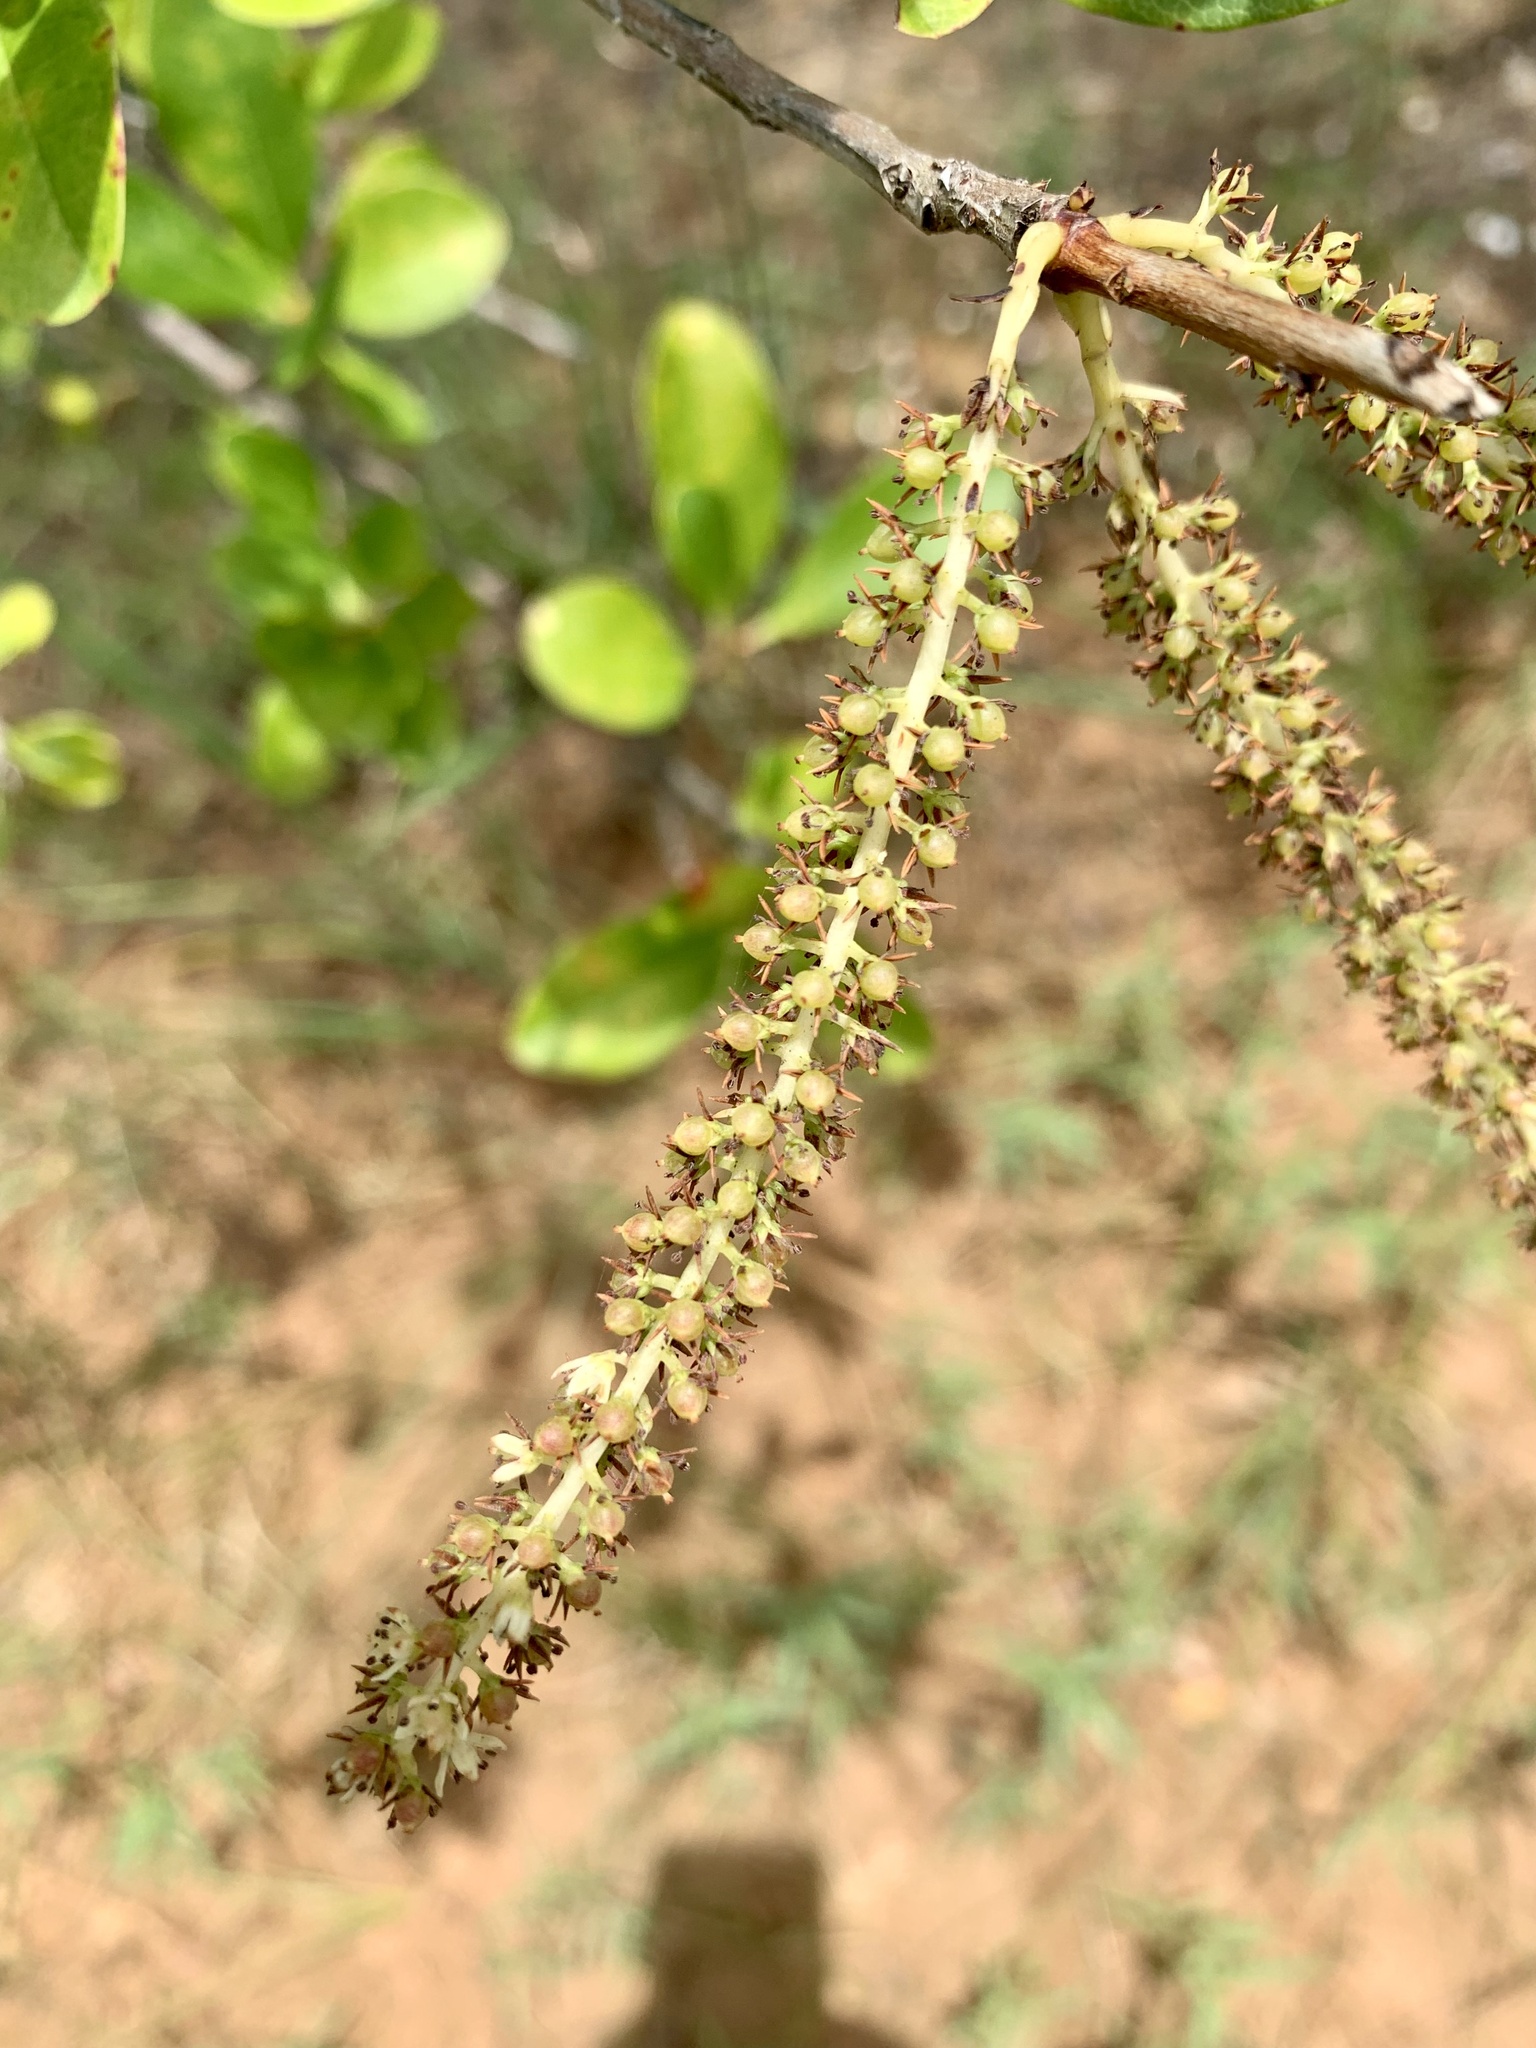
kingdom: Plantae
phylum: Tracheophyta
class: Magnoliopsida
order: Ericales
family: Cyrillaceae
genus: Cyrilla
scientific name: Cyrilla racemiflora
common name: Black titi
